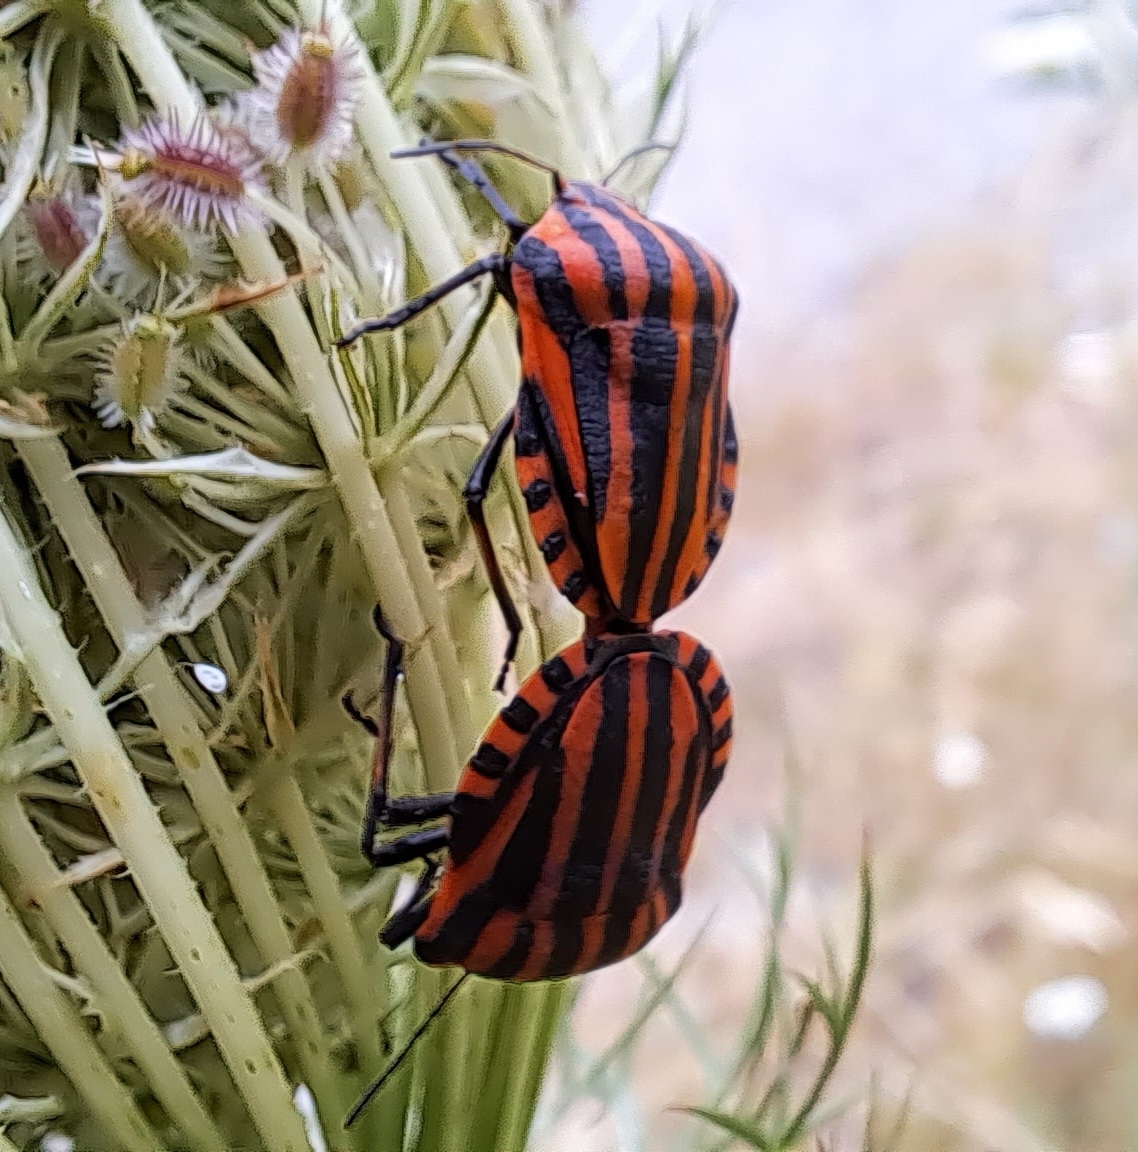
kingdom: Animalia
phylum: Arthropoda
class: Insecta
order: Hemiptera
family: Pentatomidae
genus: Graphosoma
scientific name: Graphosoma italicum
